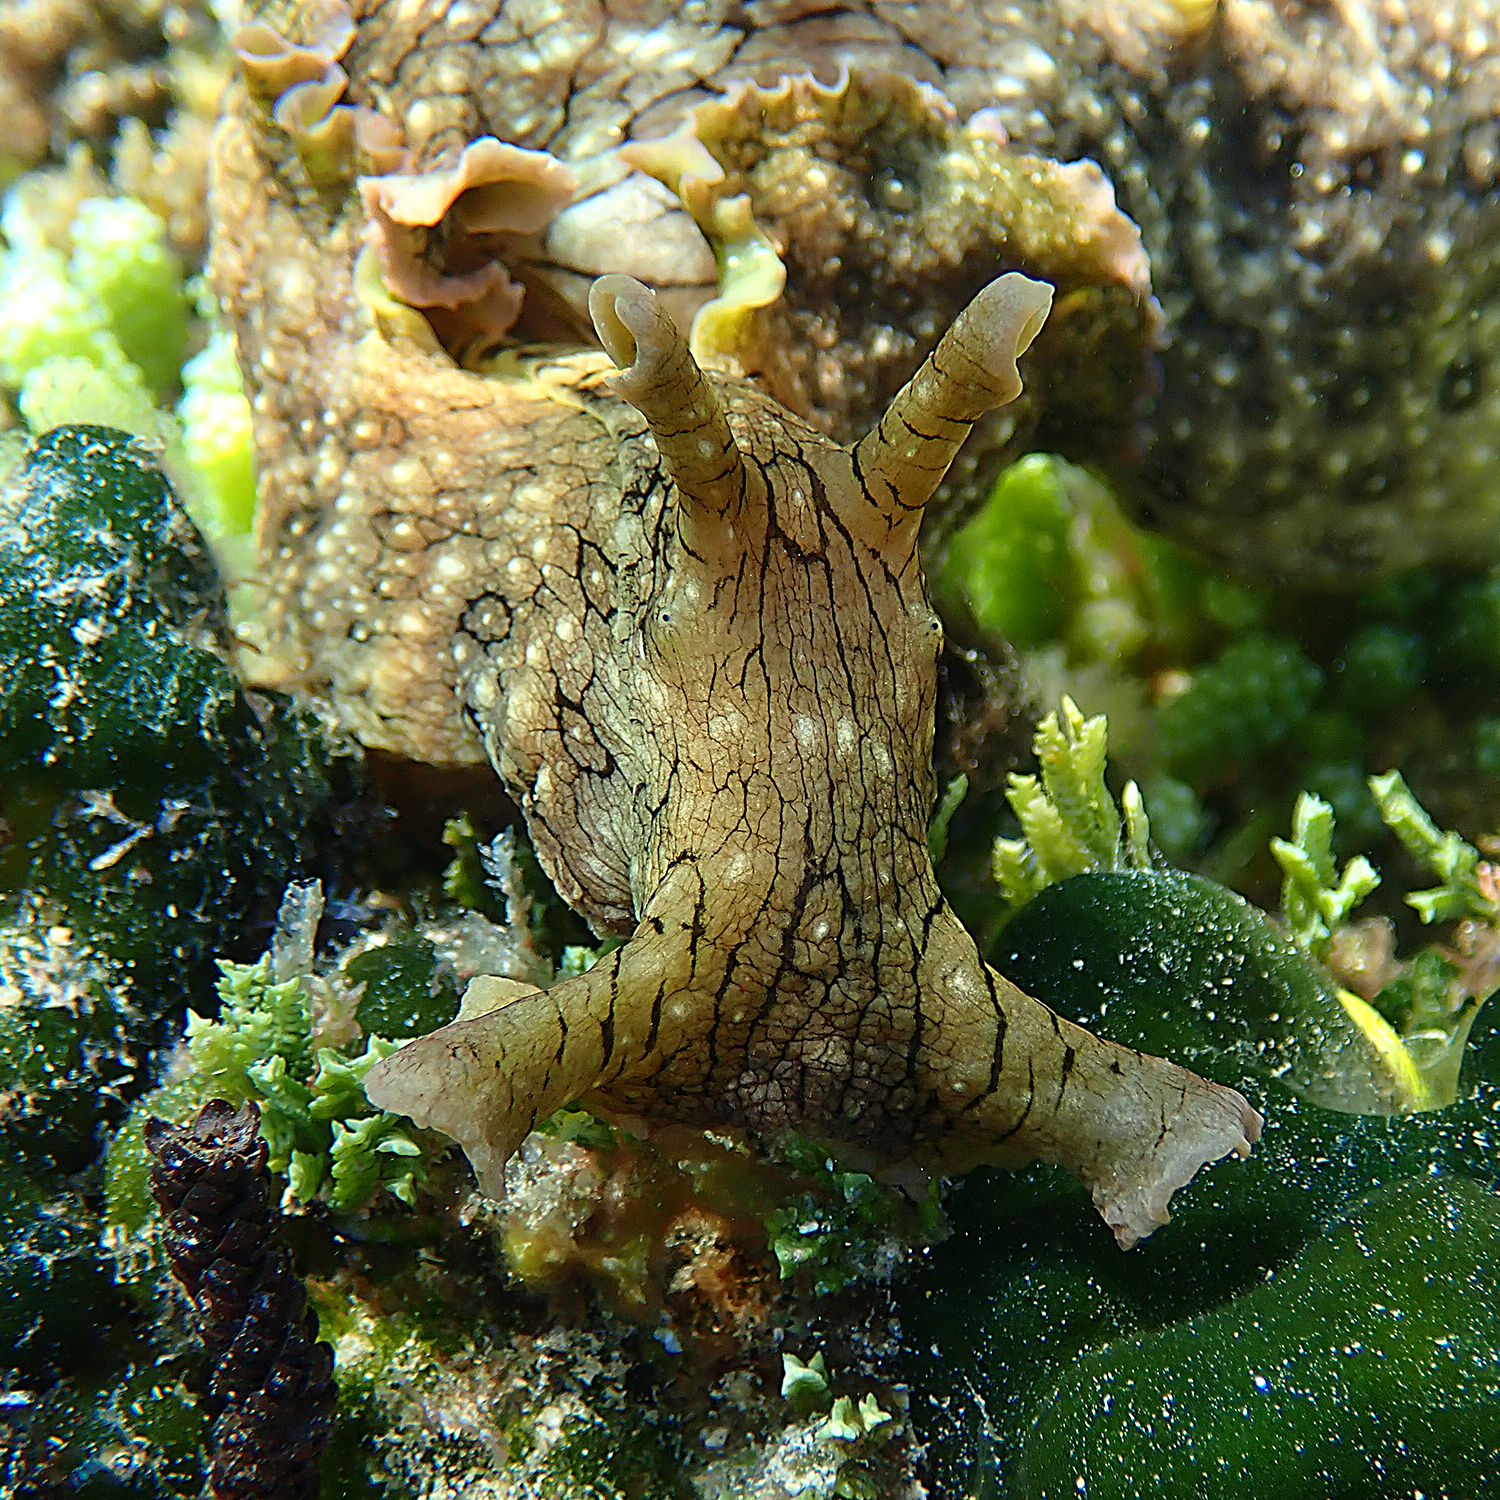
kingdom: Animalia
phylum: Mollusca
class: Gastropoda
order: Aplysiida
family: Aplysiidae
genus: Aplysia
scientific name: Aplysia argus
